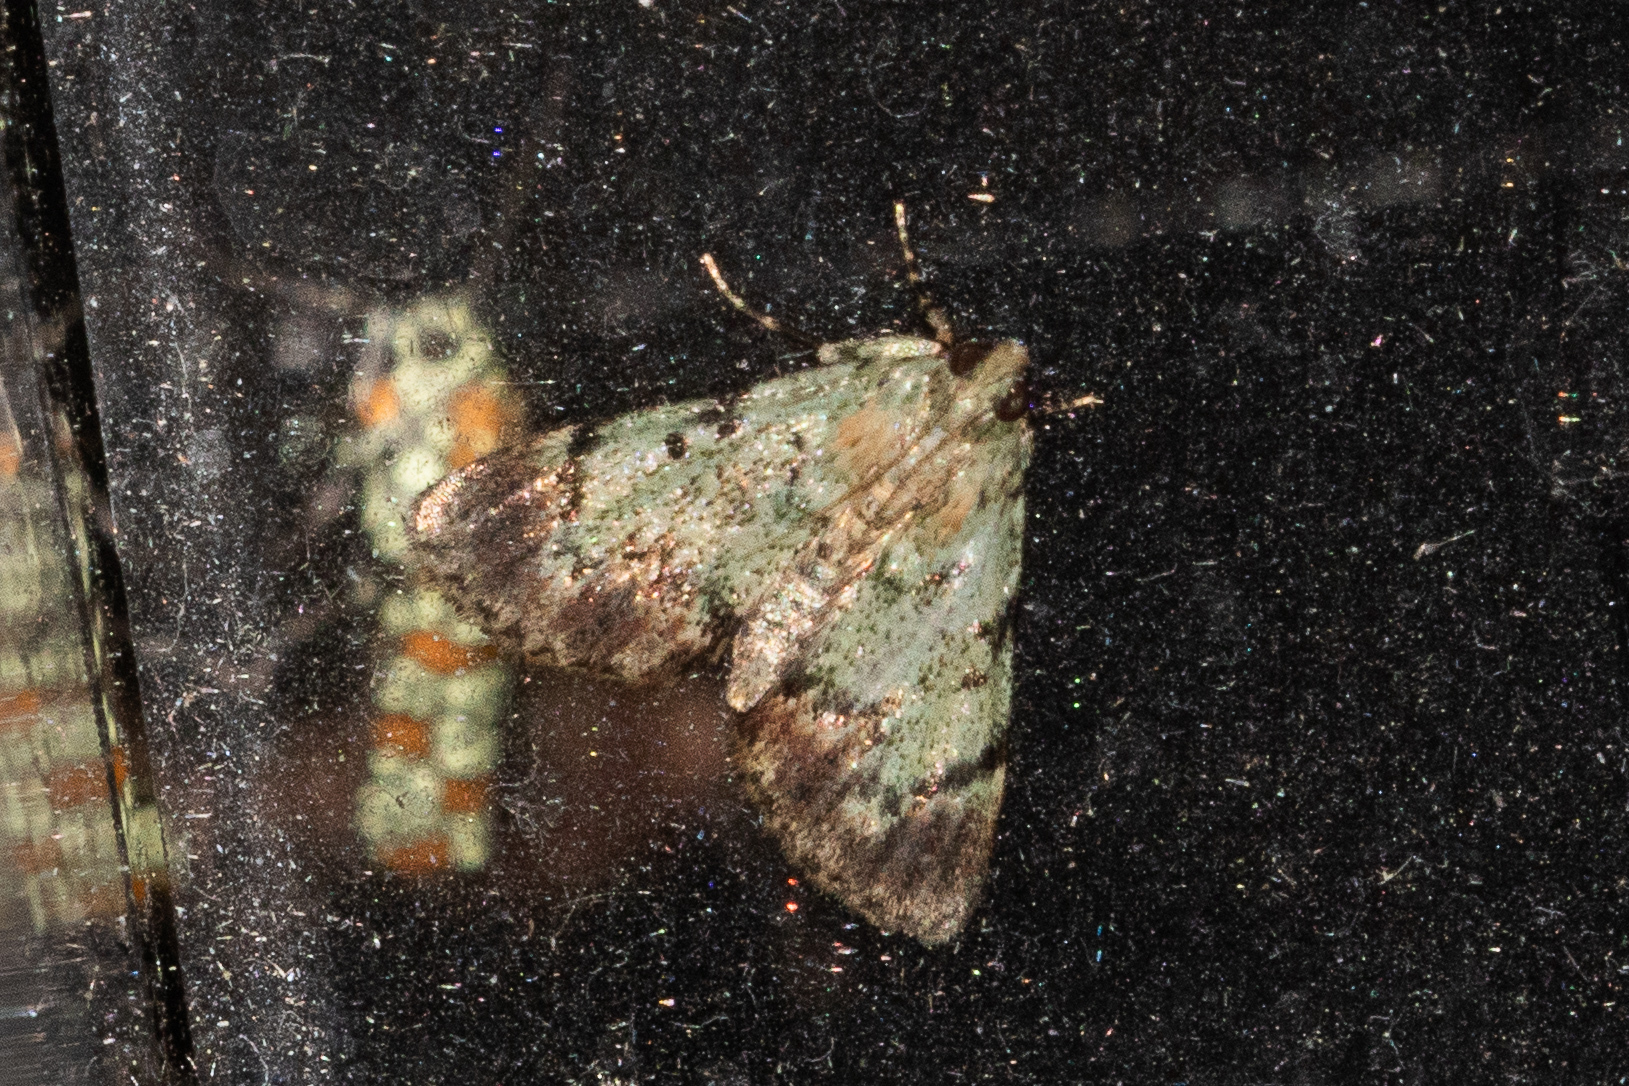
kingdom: Animalia
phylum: Arthropoda
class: Insecta
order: Lepidoptera
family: Pyralidae
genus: Epipaschia
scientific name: Epipaschia superatalis
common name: Dimorphic macalla moth
